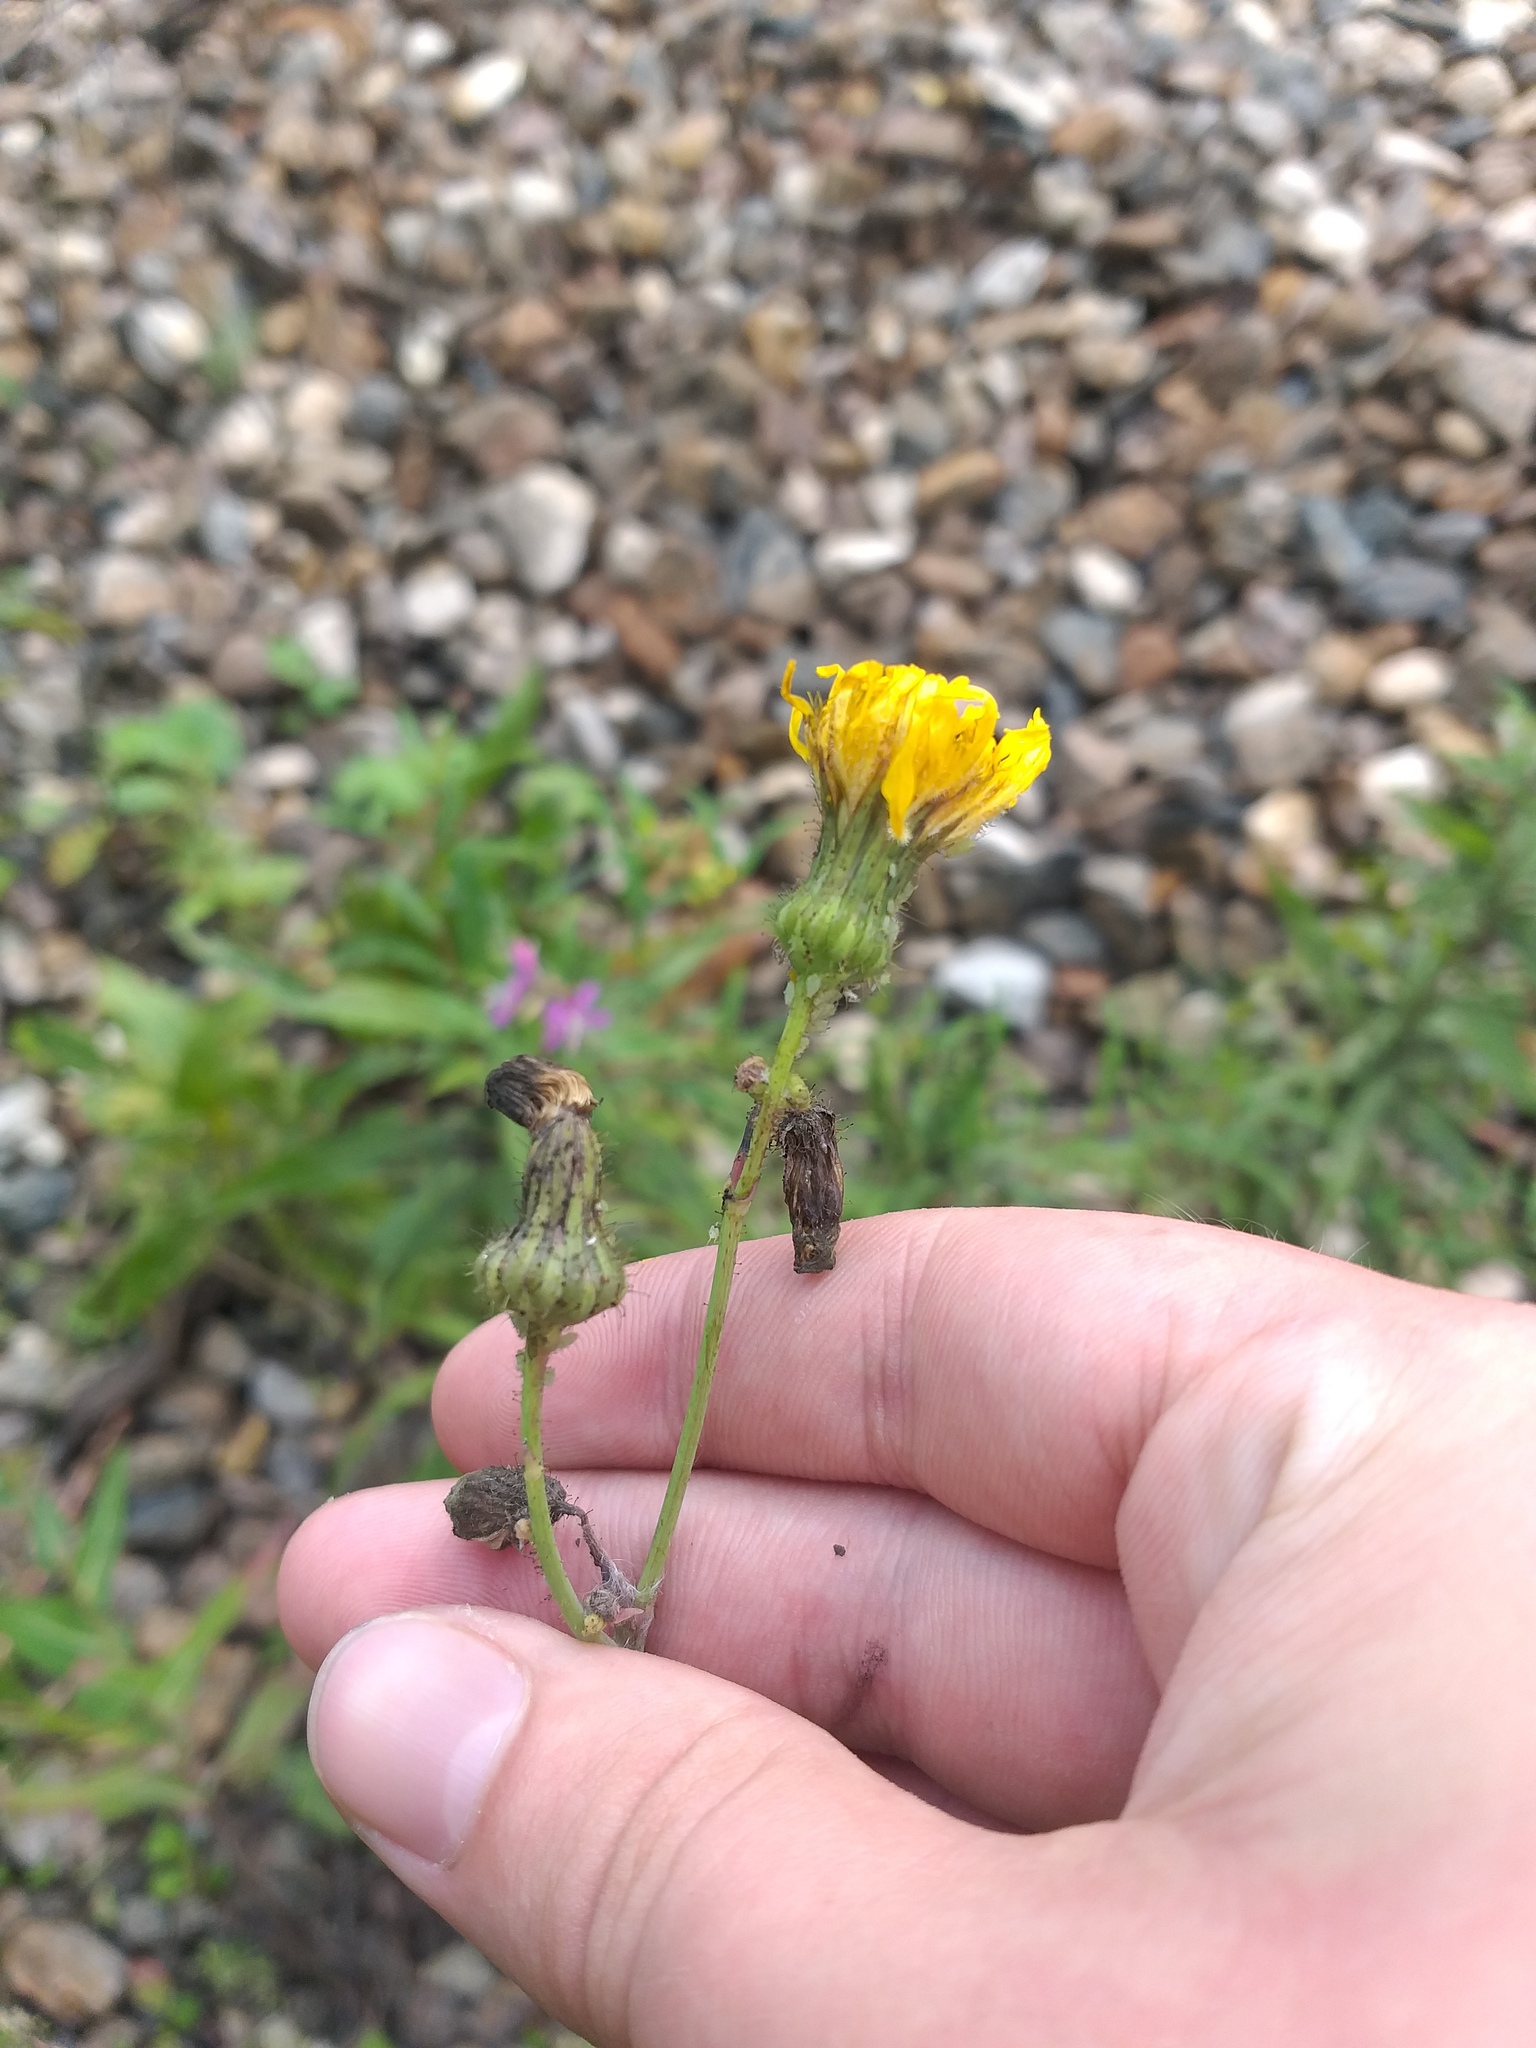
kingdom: Plantae
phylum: Tracheophyta
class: Magnoliopsida
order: Asterales
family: Asteraceae
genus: Sonchus
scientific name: Sonchus arvensis
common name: Perennial sow-thistle
